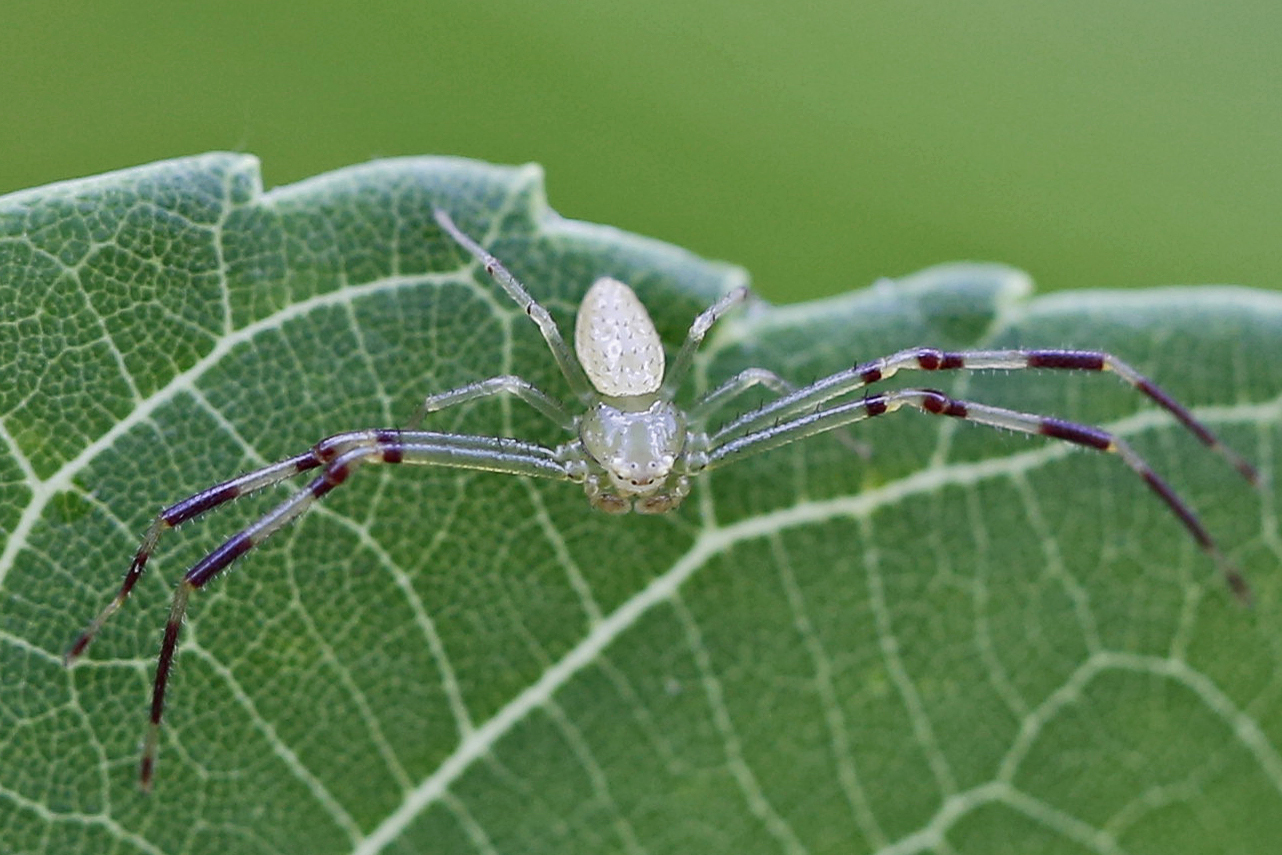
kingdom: Animalia
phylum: Arthropoda
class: Arachnida
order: Araneae
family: Thomisidae
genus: Misumessus
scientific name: Misumessus oblongus
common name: American green crab spider
